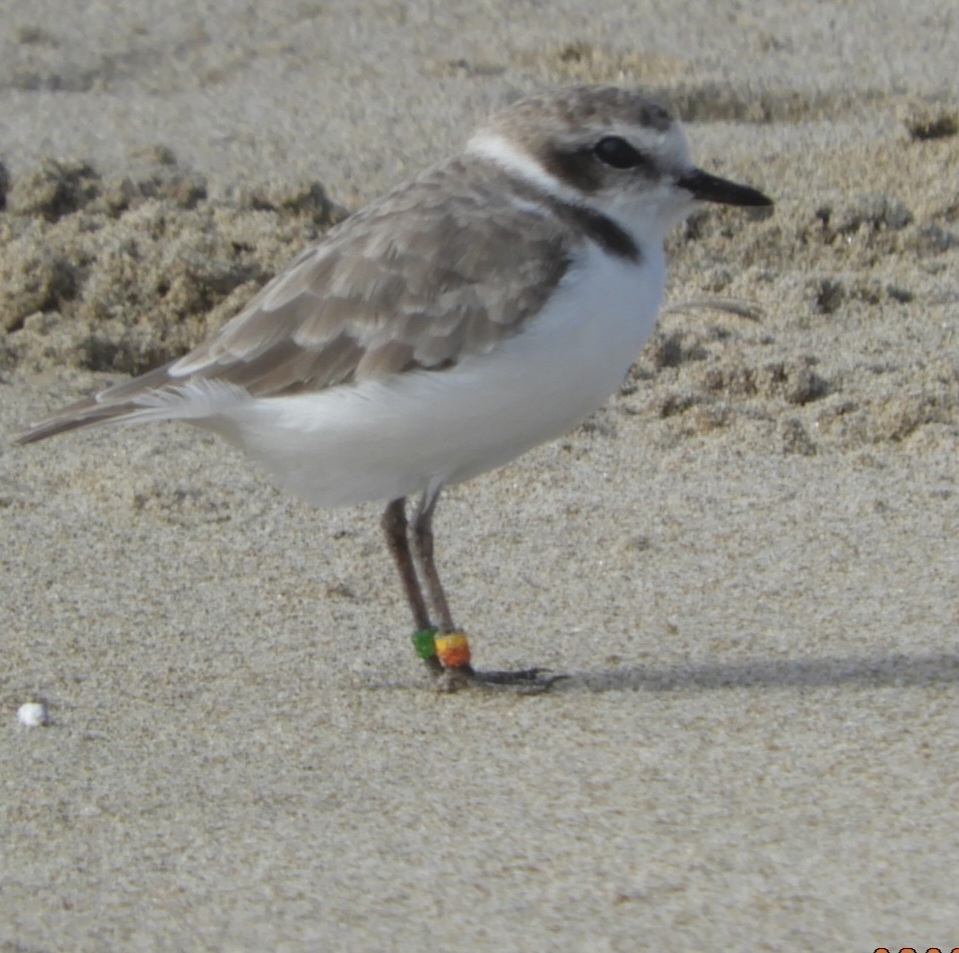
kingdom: Animalia
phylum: Chordata
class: Aves
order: Charadriiformes
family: Charadriidae
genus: Anarhynchus
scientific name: Anarhynchus
